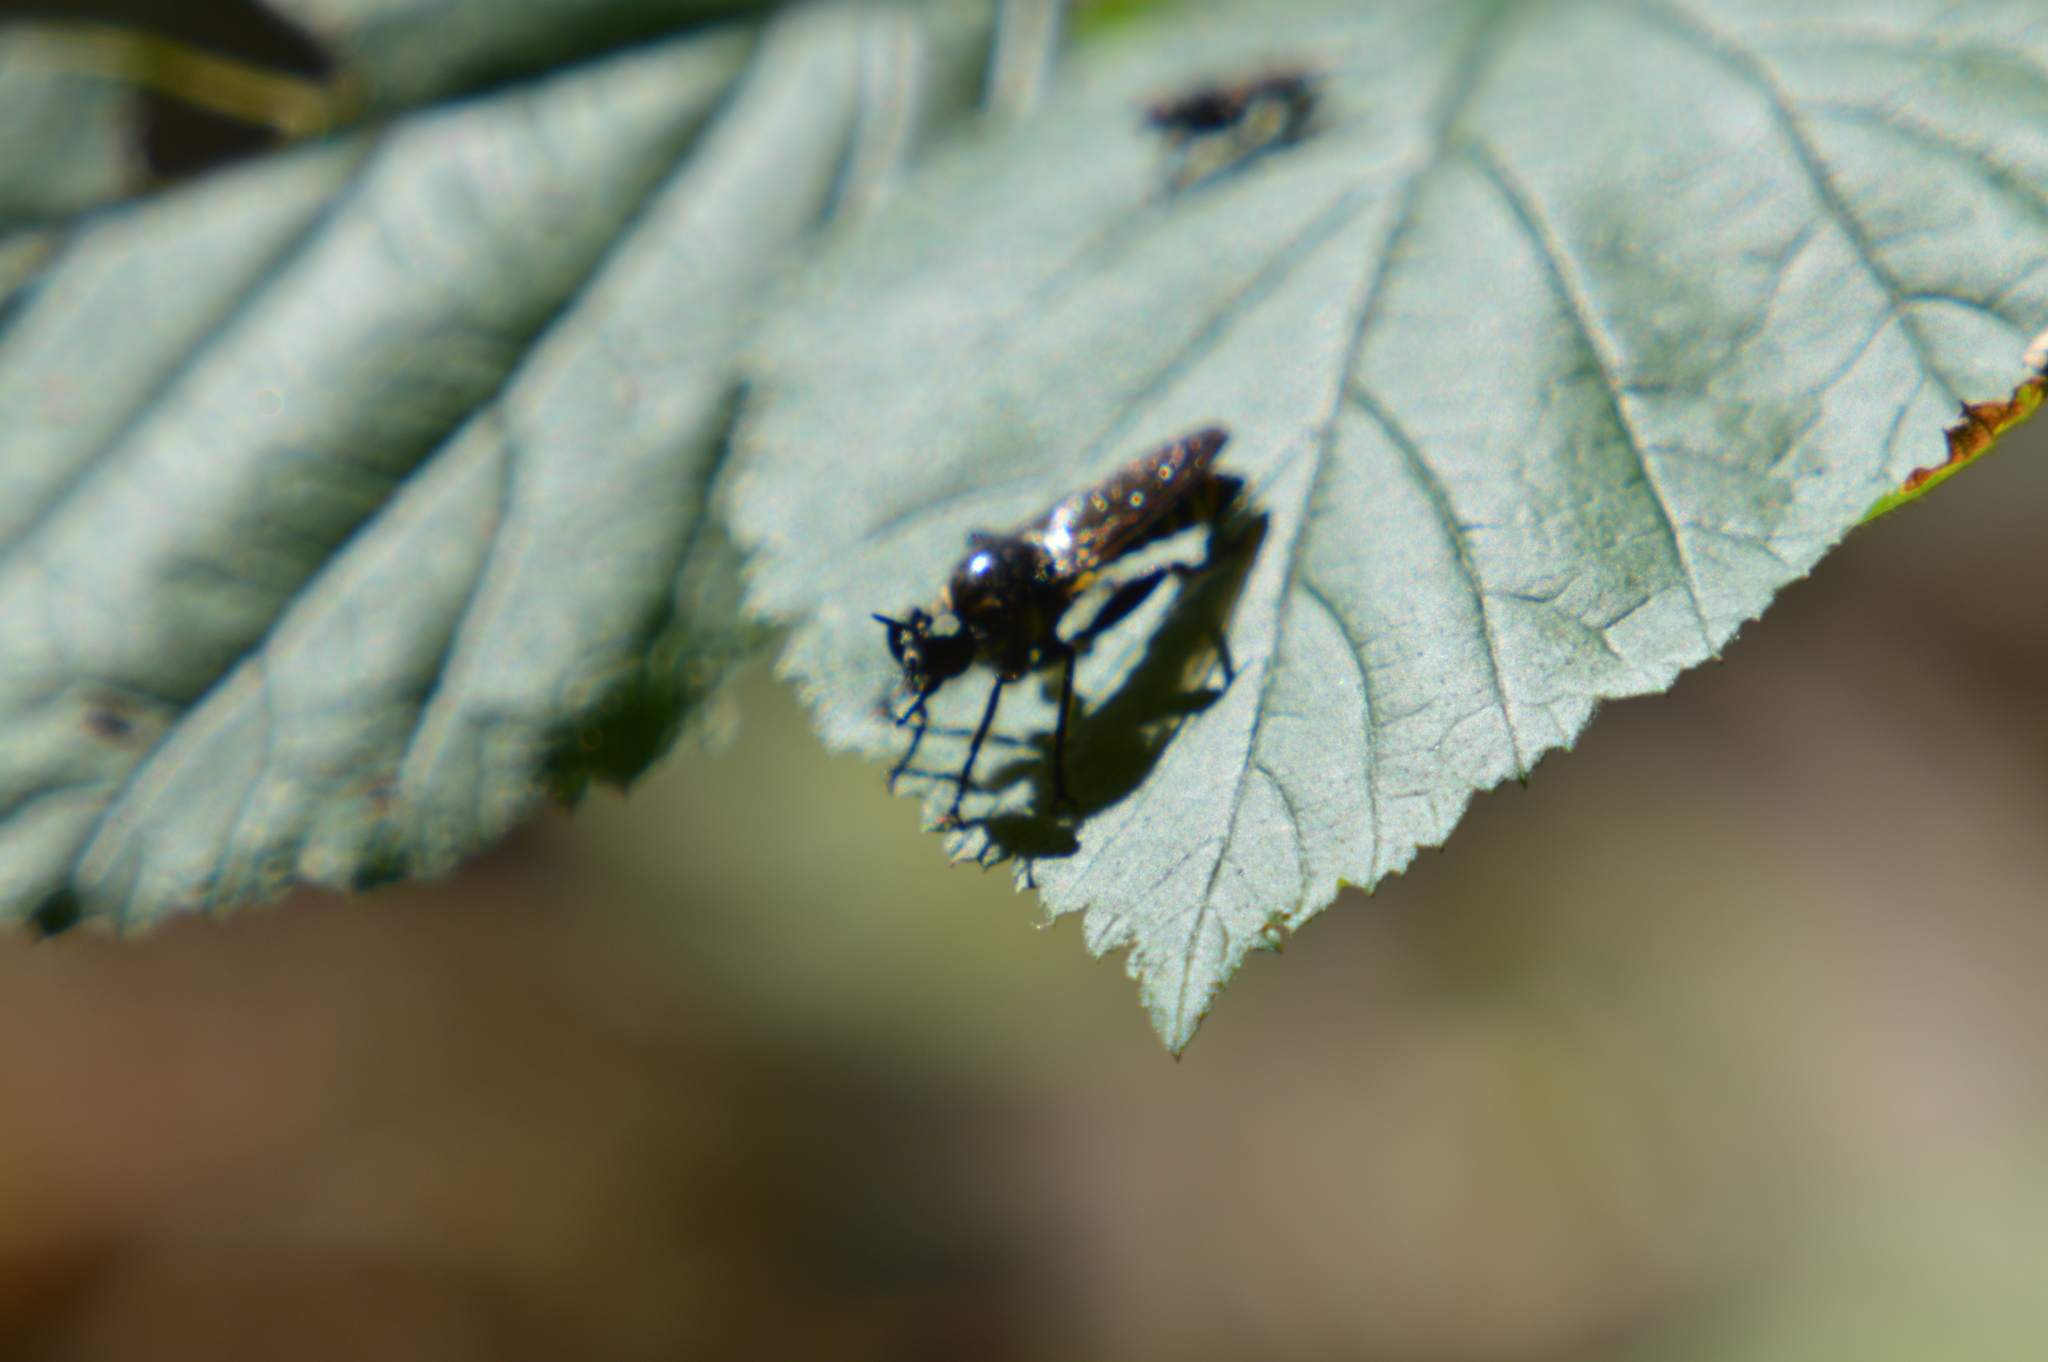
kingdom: Animalia
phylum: Arthropoda
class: Insecta
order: Diptera
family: Asilidae
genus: Choerades
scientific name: Choerades
